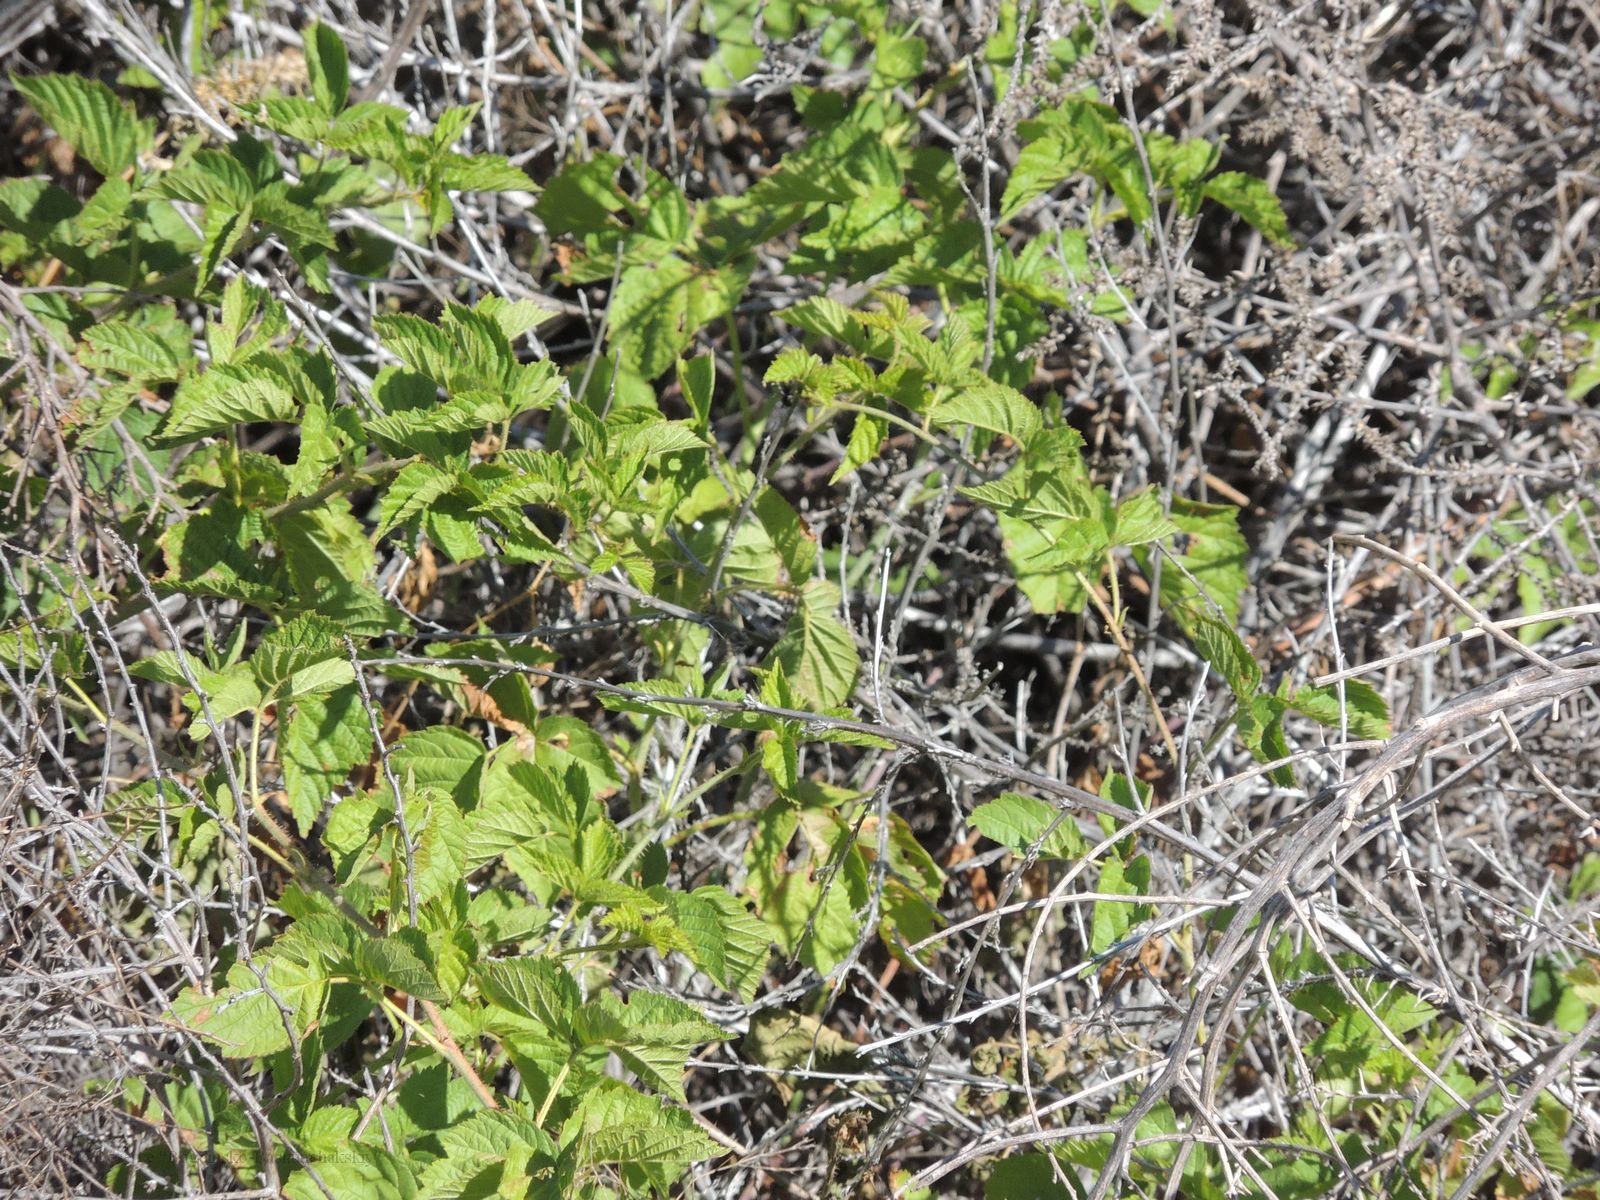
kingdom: Plantae
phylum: Tracheophyta
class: Magnoliopsida
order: Rosales
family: Rosaceae
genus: Rubus
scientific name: Rubus caesius
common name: Dewberry
